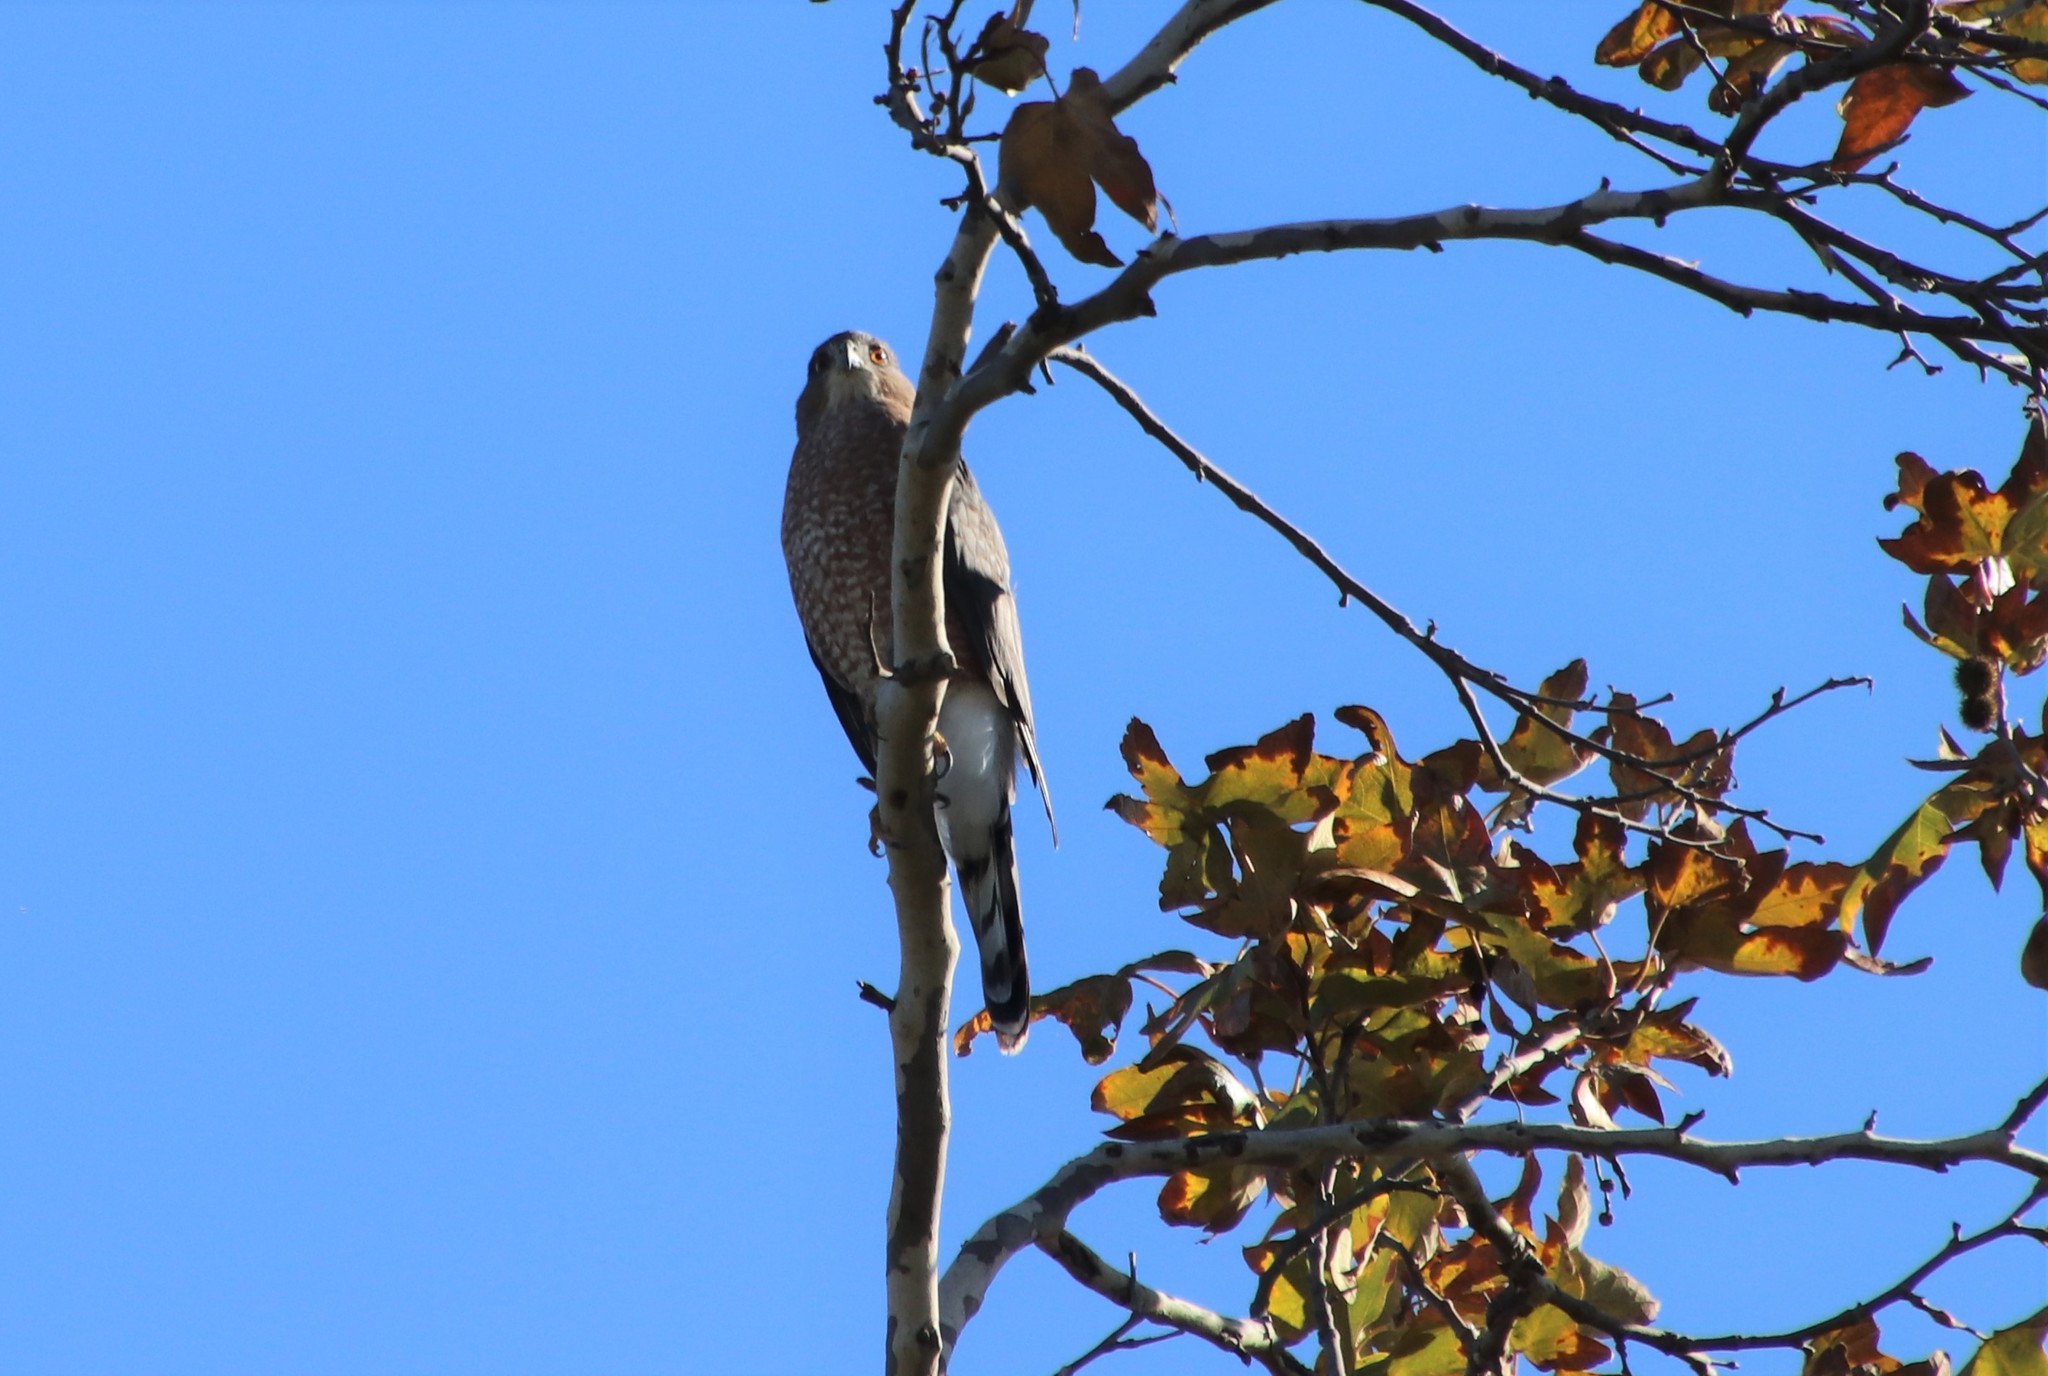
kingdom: Animalia
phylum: Chordata
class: Aves
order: Accipitriformes
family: Accipitridae
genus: Accipiter
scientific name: Accipiter cooperii
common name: Cooper's hawk
